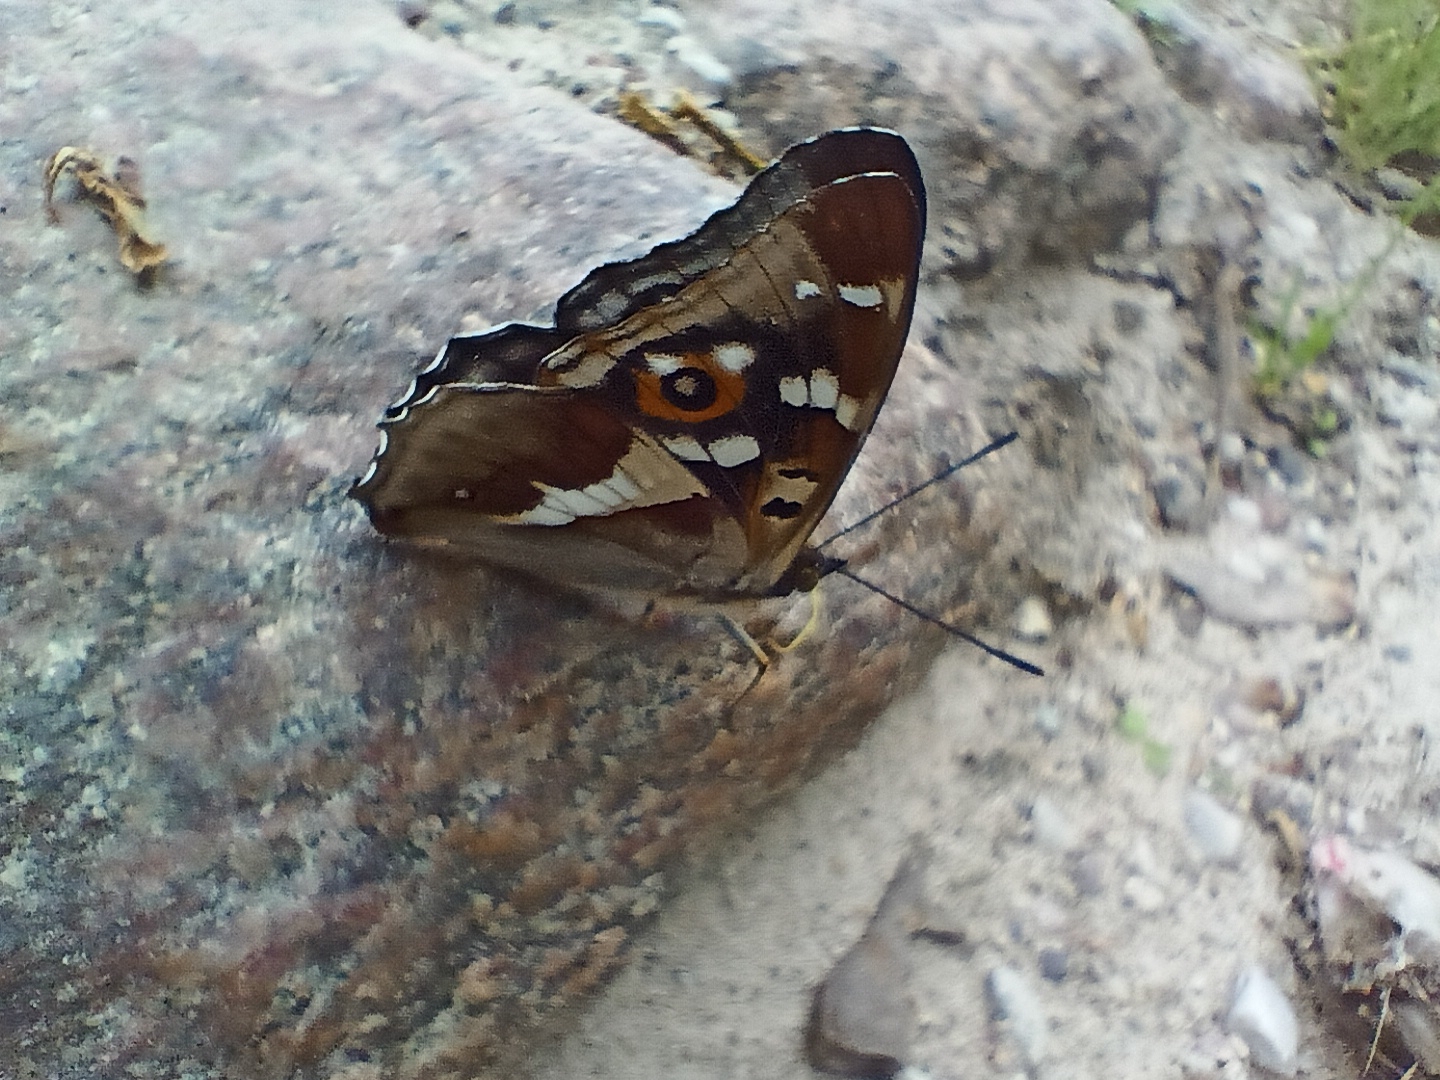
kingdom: Animalia
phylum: Arthropoda
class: Insecta
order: Lepidoptera
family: Nymphalidae
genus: Apatura
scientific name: Apatura iris
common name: Purple emperor
